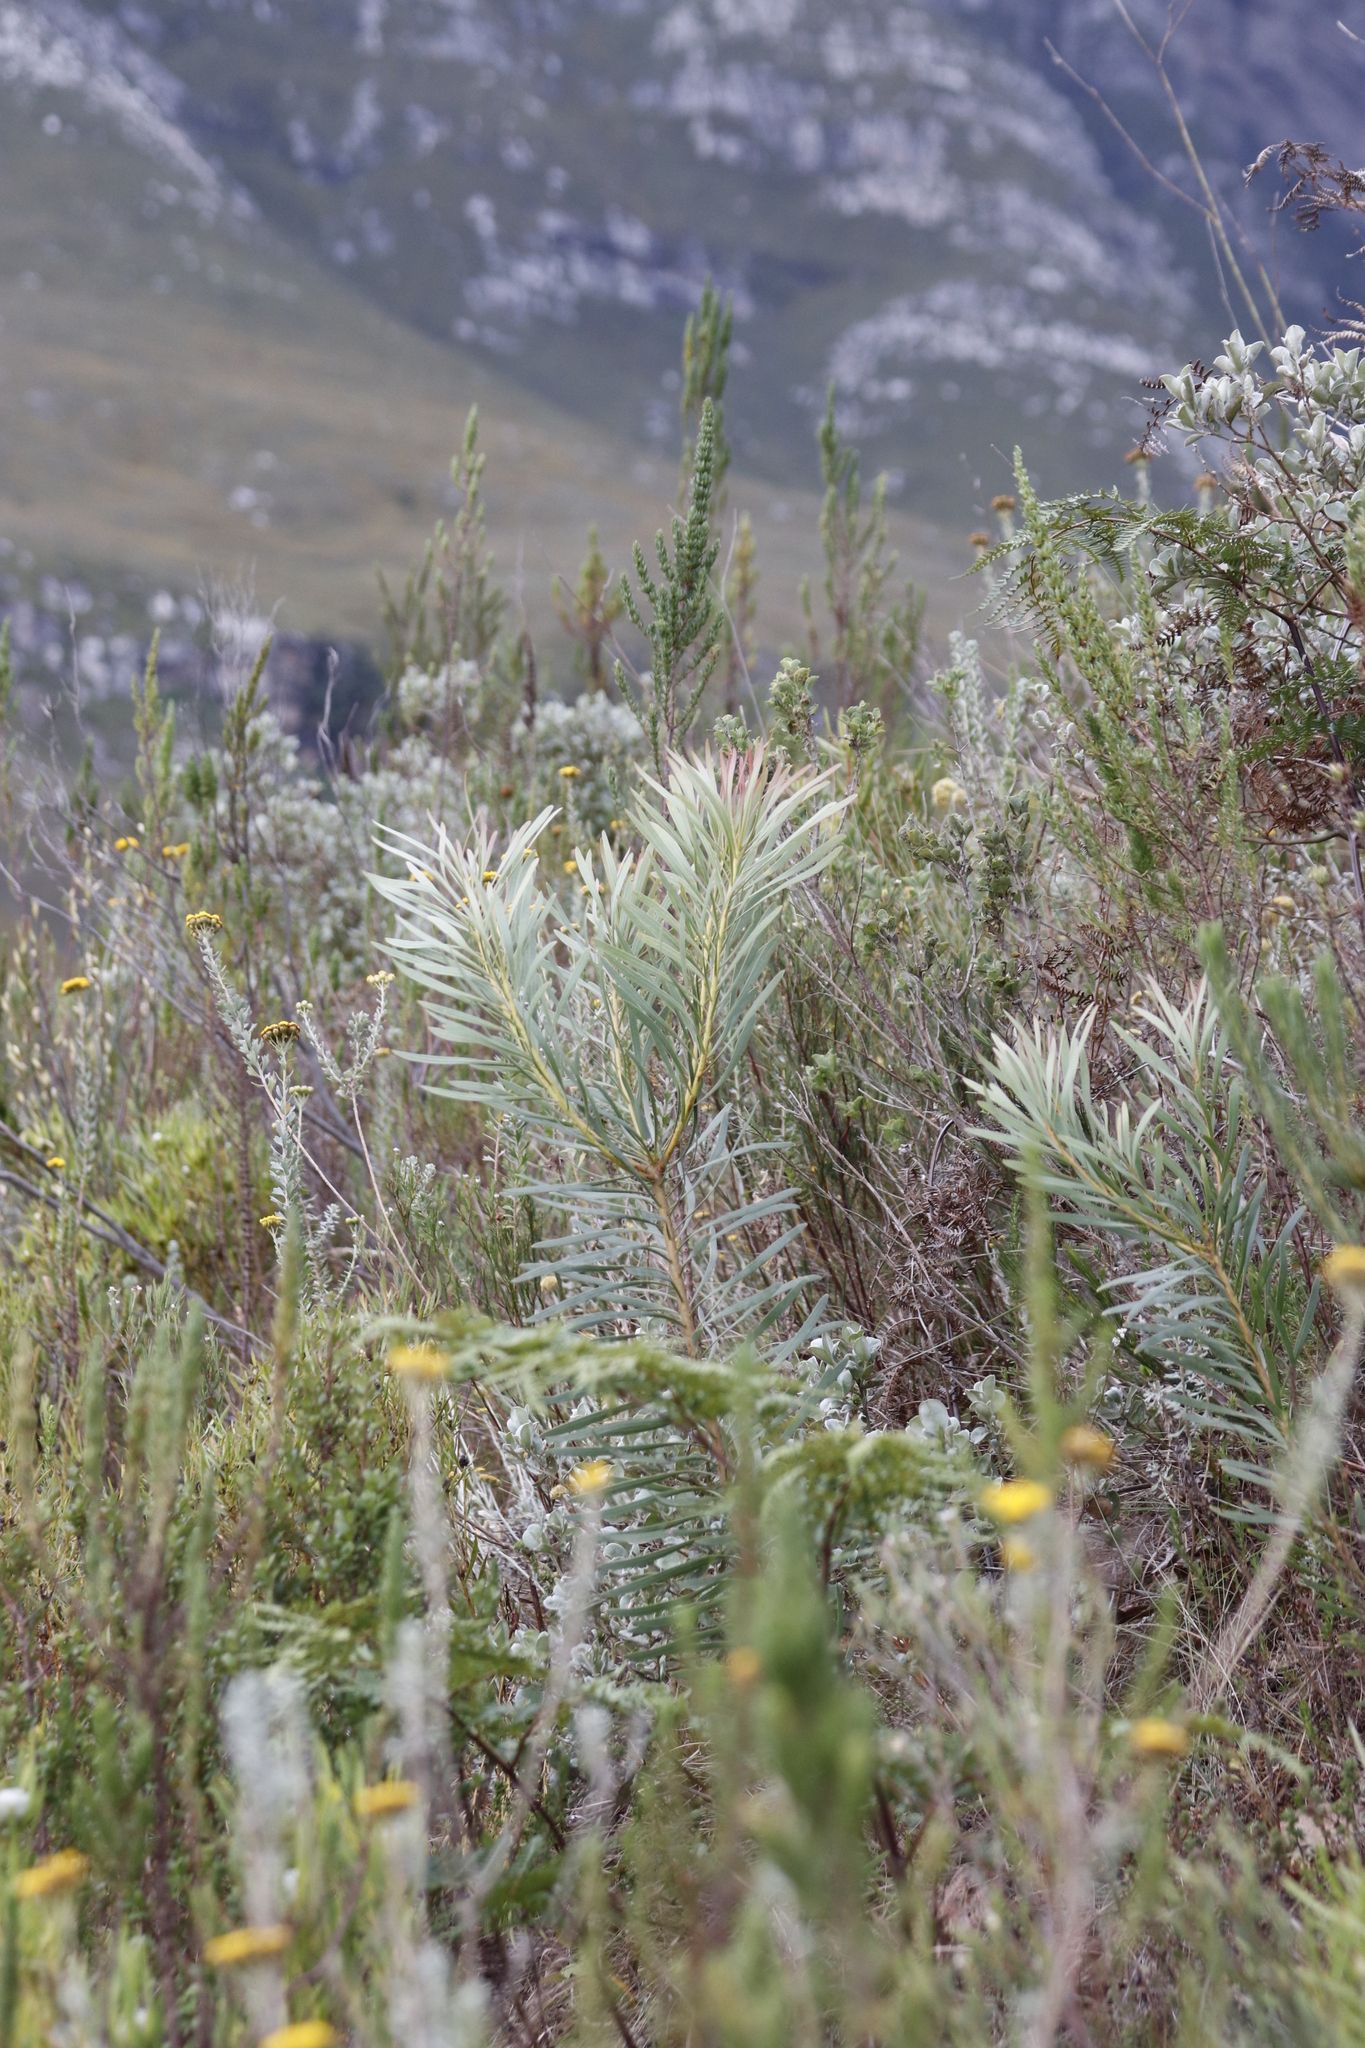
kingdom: Plantae
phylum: Tracheophyta
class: Magnoliopsida
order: Proteales
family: Proteaceae
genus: Protea
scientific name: Protea repens
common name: Sugarbush
